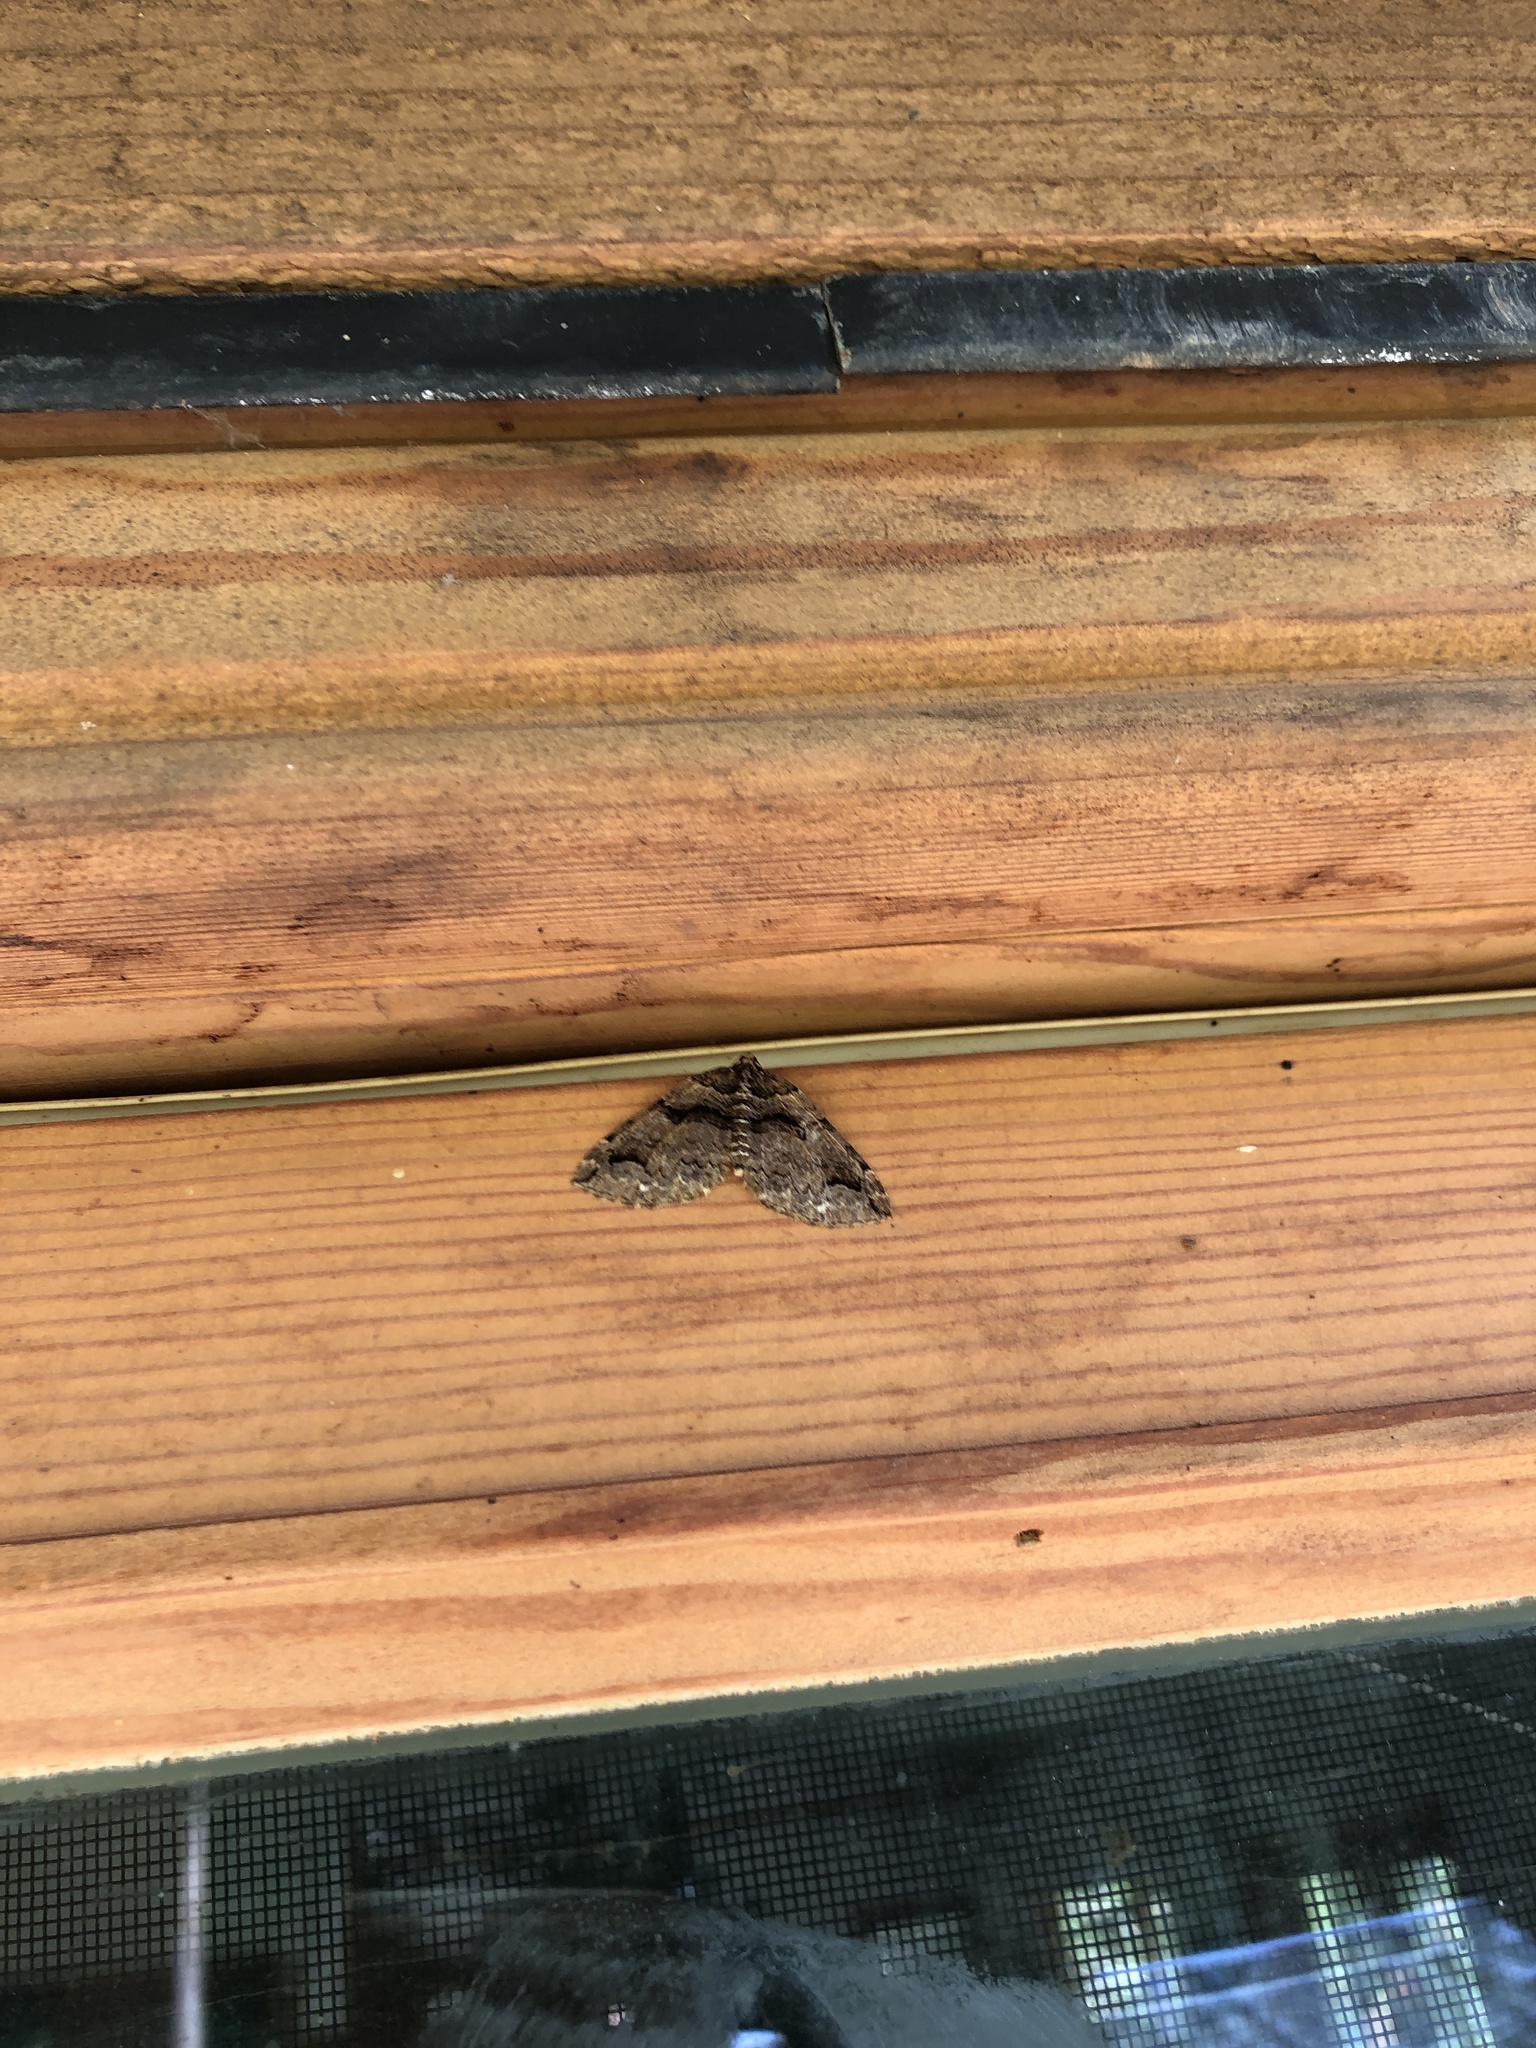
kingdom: Animalia
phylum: Arthropoda
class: Insecta
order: Lepidoptera
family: Geometridae
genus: Anticlea
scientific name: Anticlea vasiliata
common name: Variable carpet
